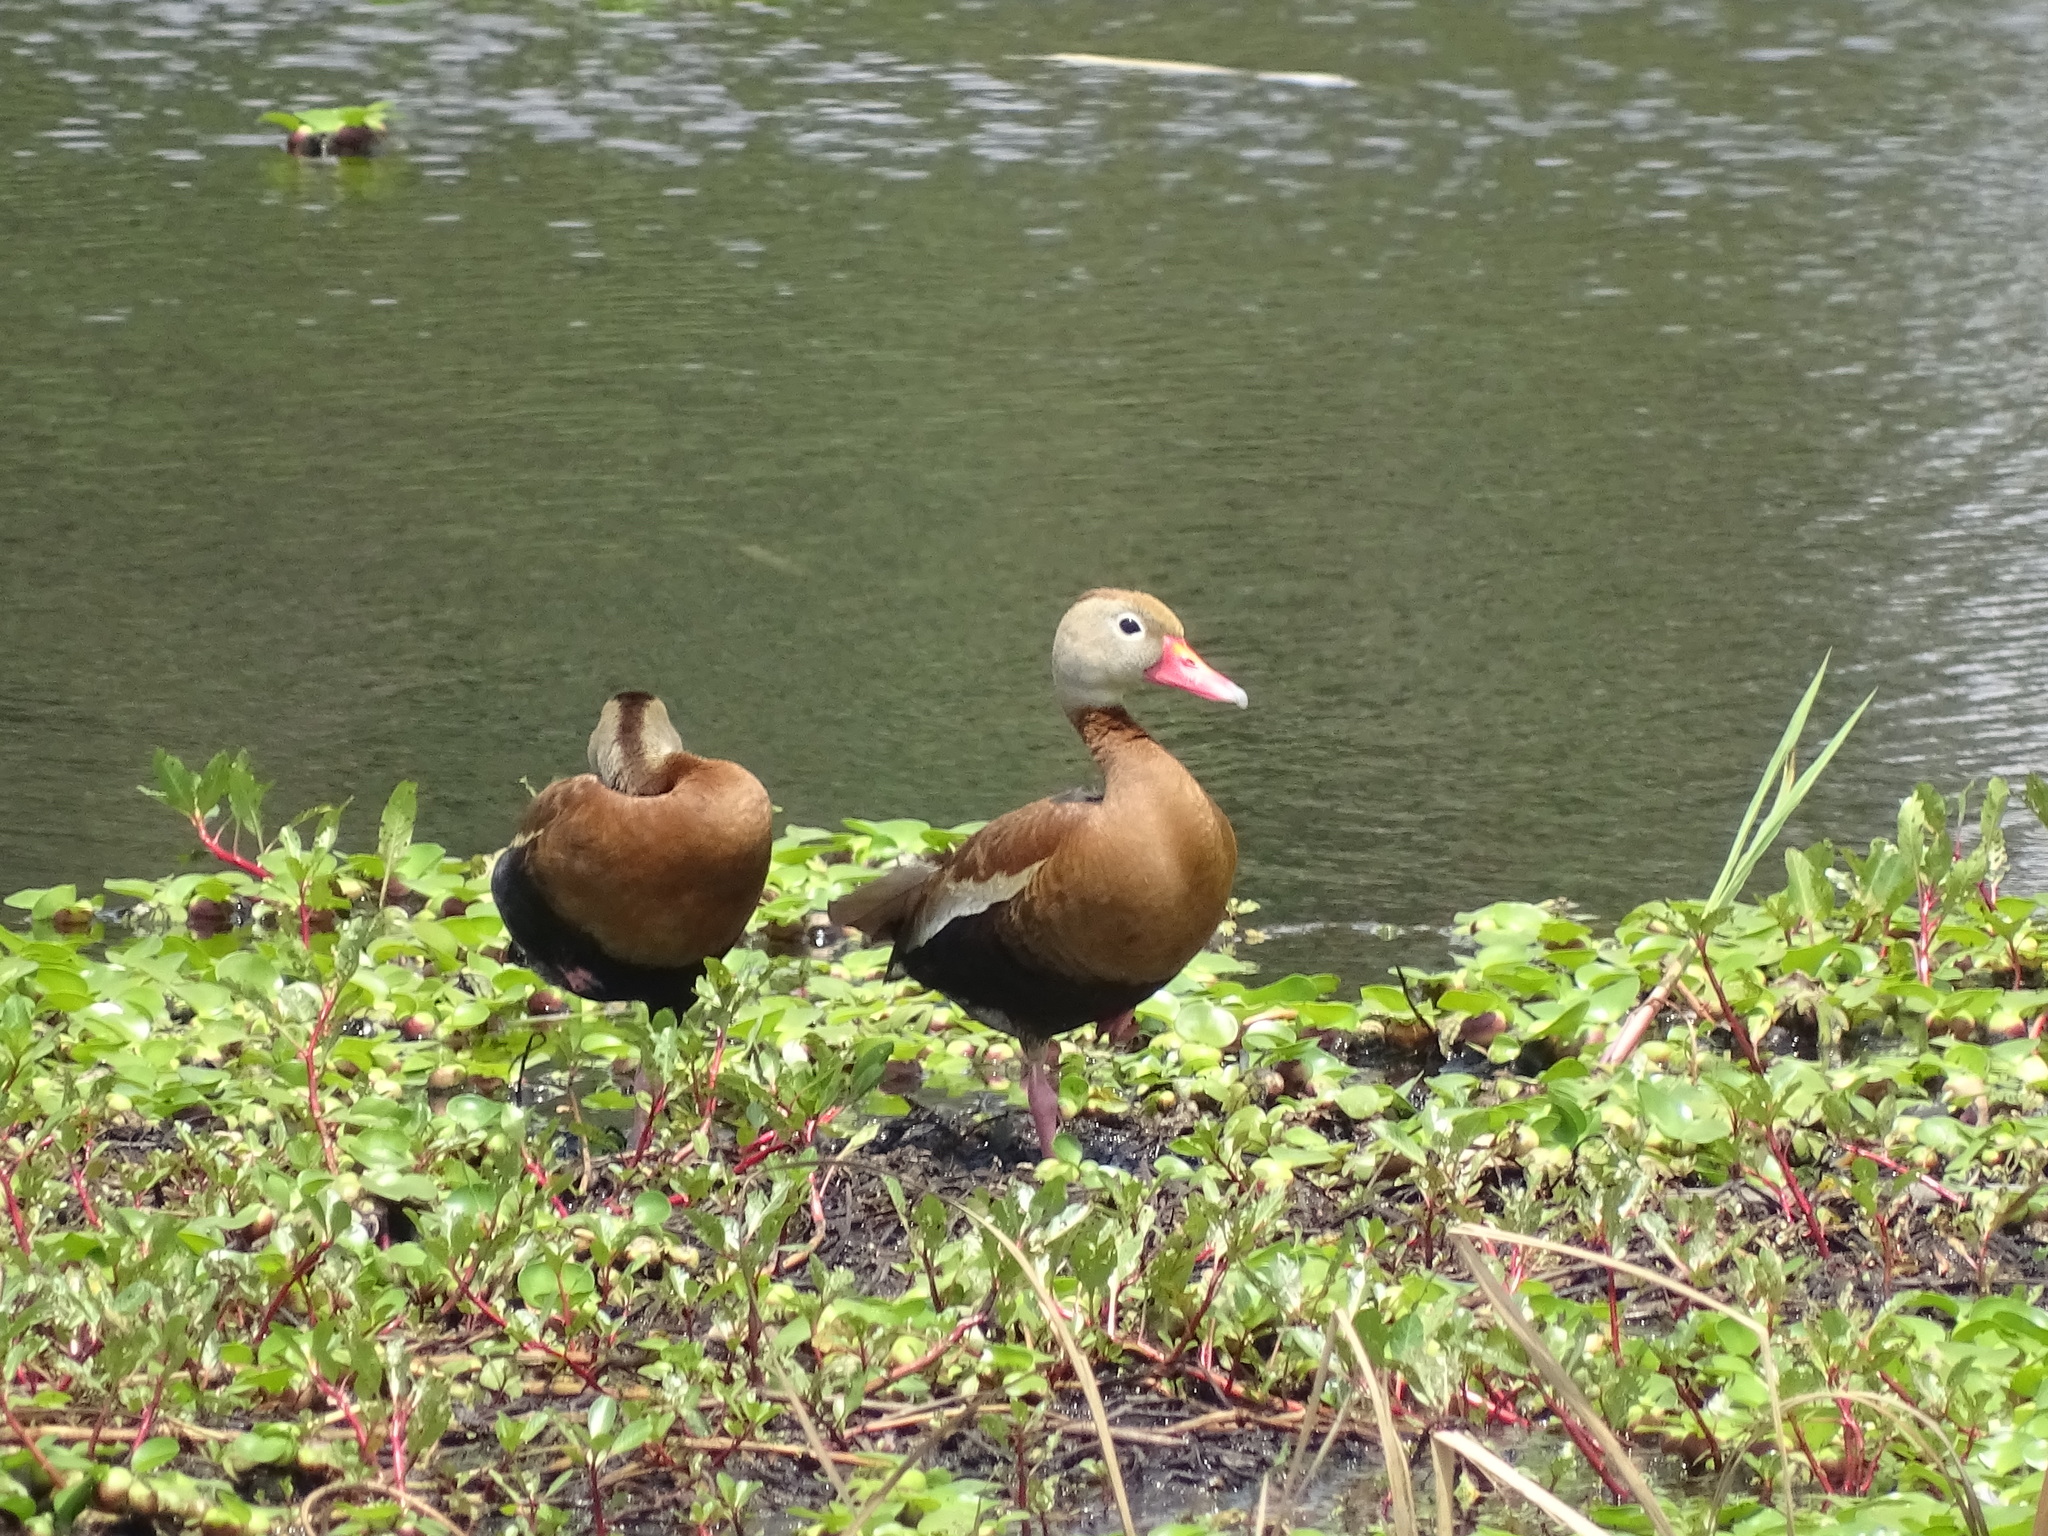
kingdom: Animalia
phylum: Chordata
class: Aves
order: Anseriformes
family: Anatidae
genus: Dendrocygna
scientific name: Dendrocygna autumnalis
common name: Black-bellied whistling duck
